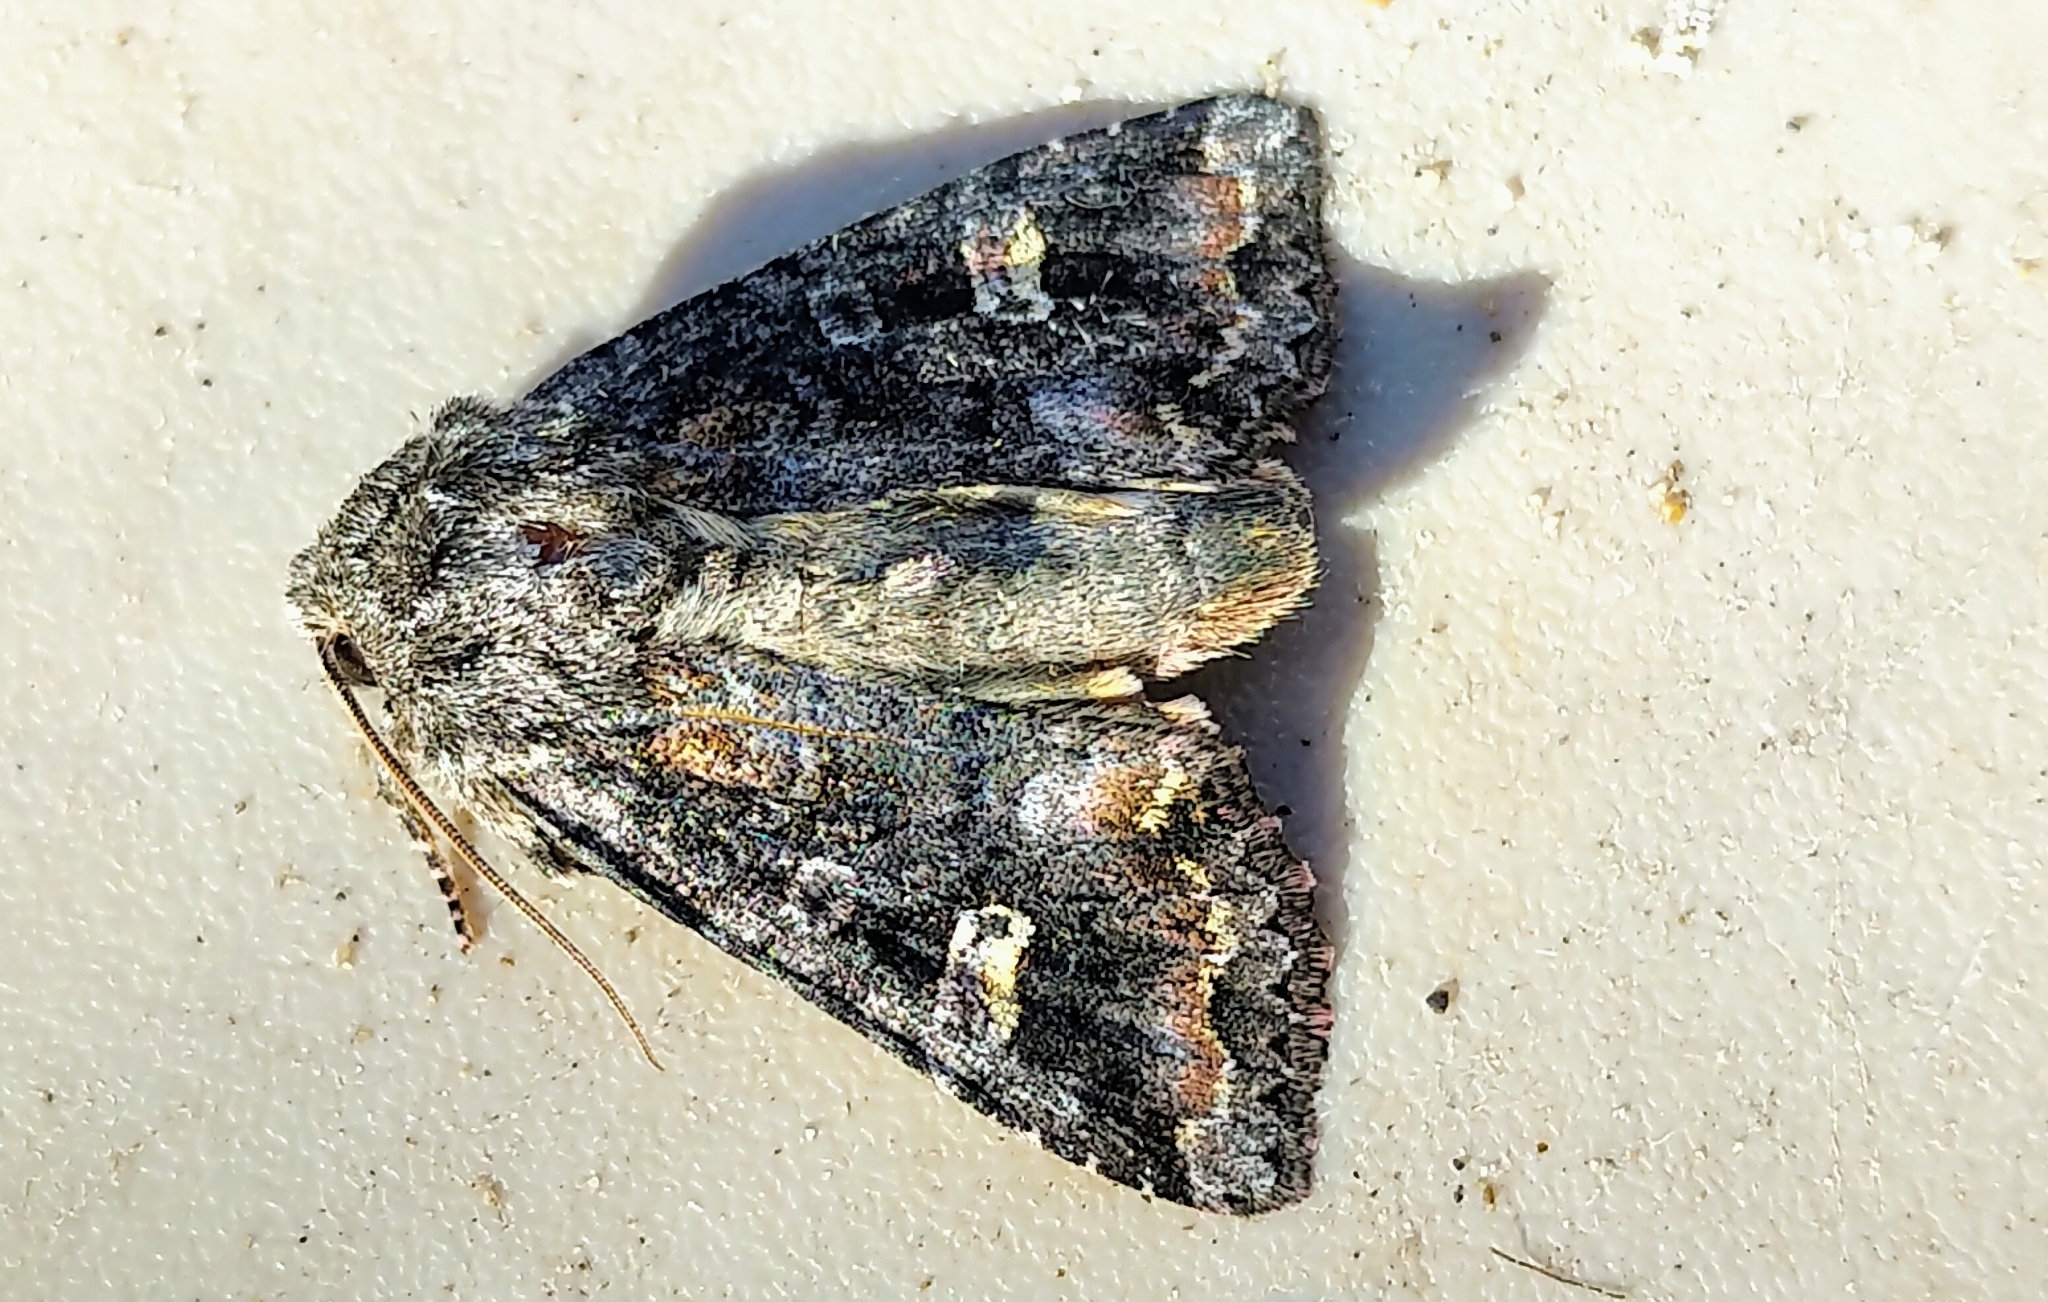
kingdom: Animalia
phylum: Arthropoda
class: Insecta
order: Lepidoptera
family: Noctuidae
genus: Spiramater
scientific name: Spiramater lutra
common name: Otter spiramater moth
